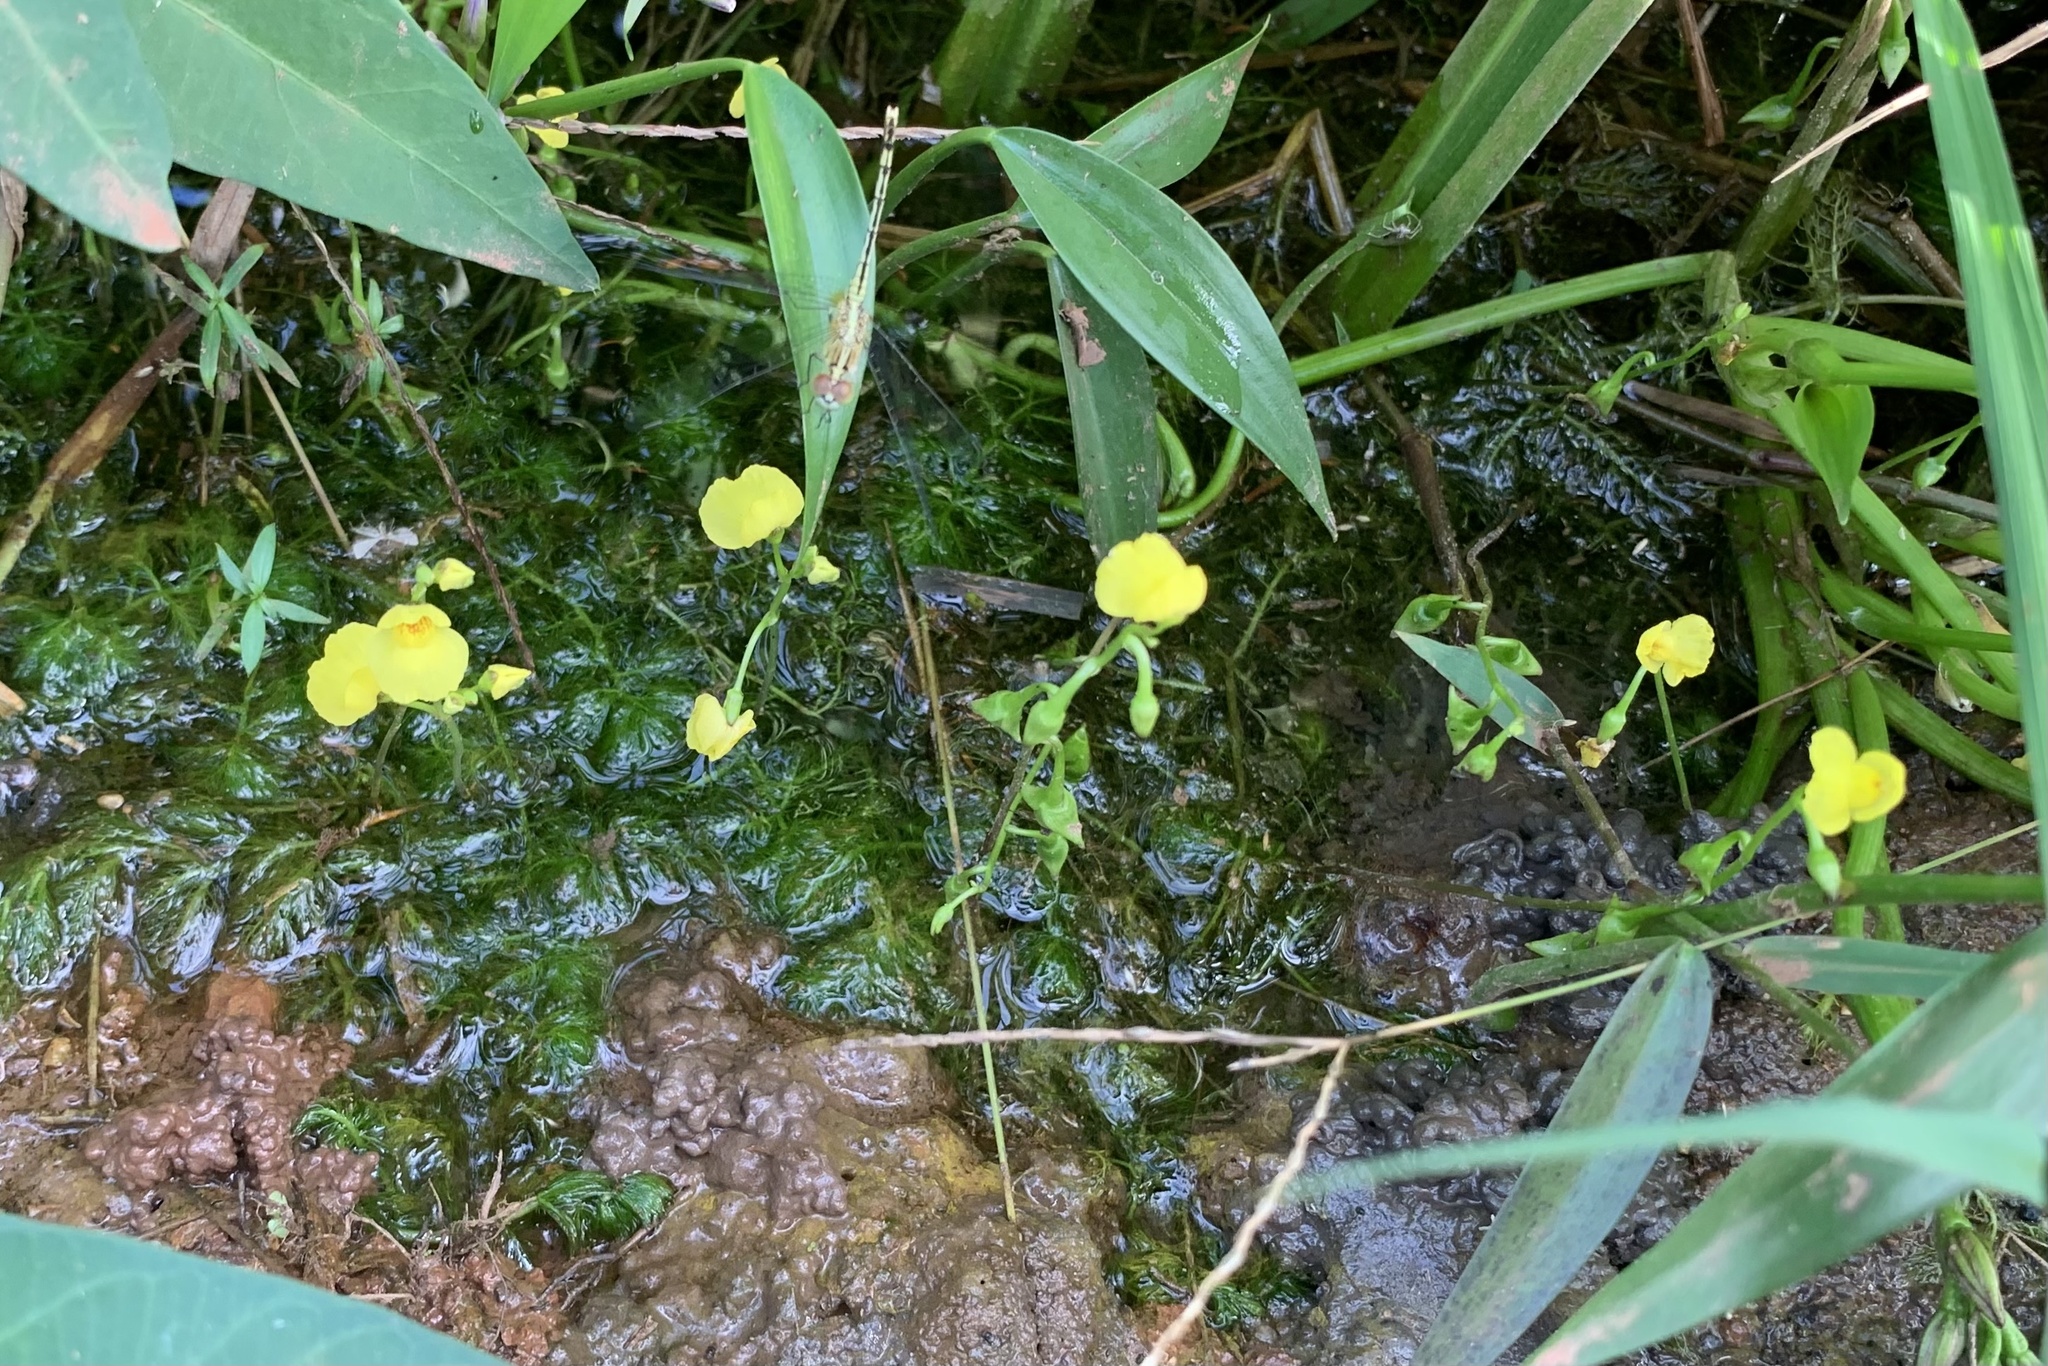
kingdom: Plantae
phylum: Tracheophyta
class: Magnoliopsida
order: Lamiales
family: Lentibulariaceae
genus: Utricularia
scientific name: Utricularia aurea
